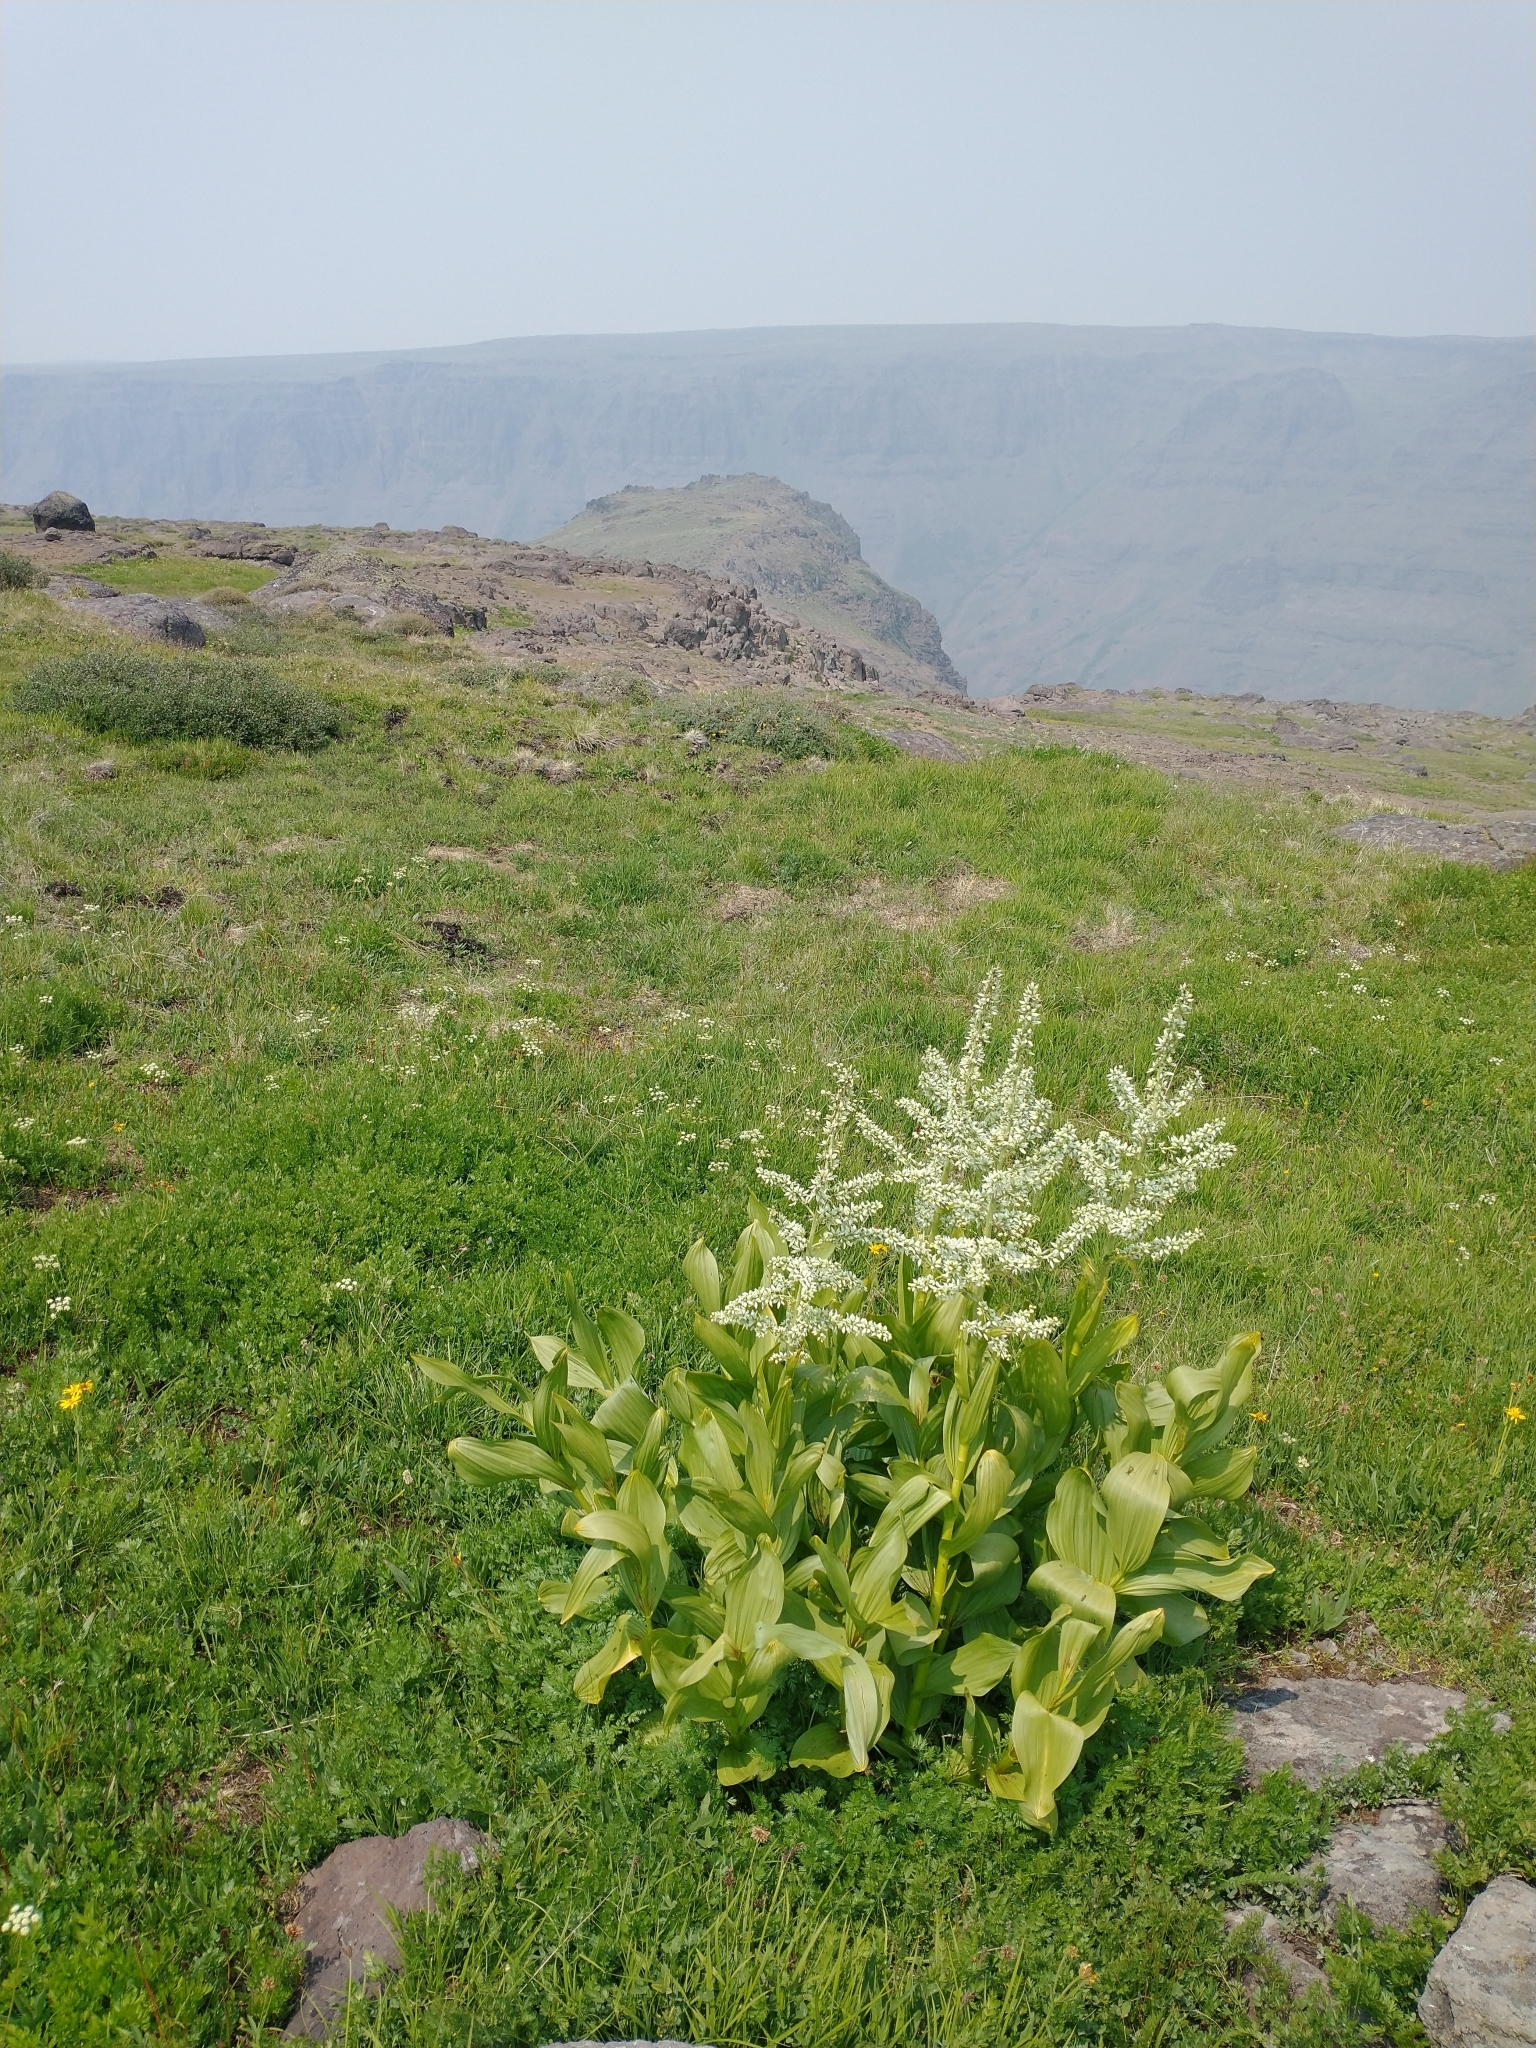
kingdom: Plantae
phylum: Tracheophyta
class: Liliopsida
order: Liliales
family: Melanthiaceae
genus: Veratrum
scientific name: Veratrum californicum
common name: California veratrum
